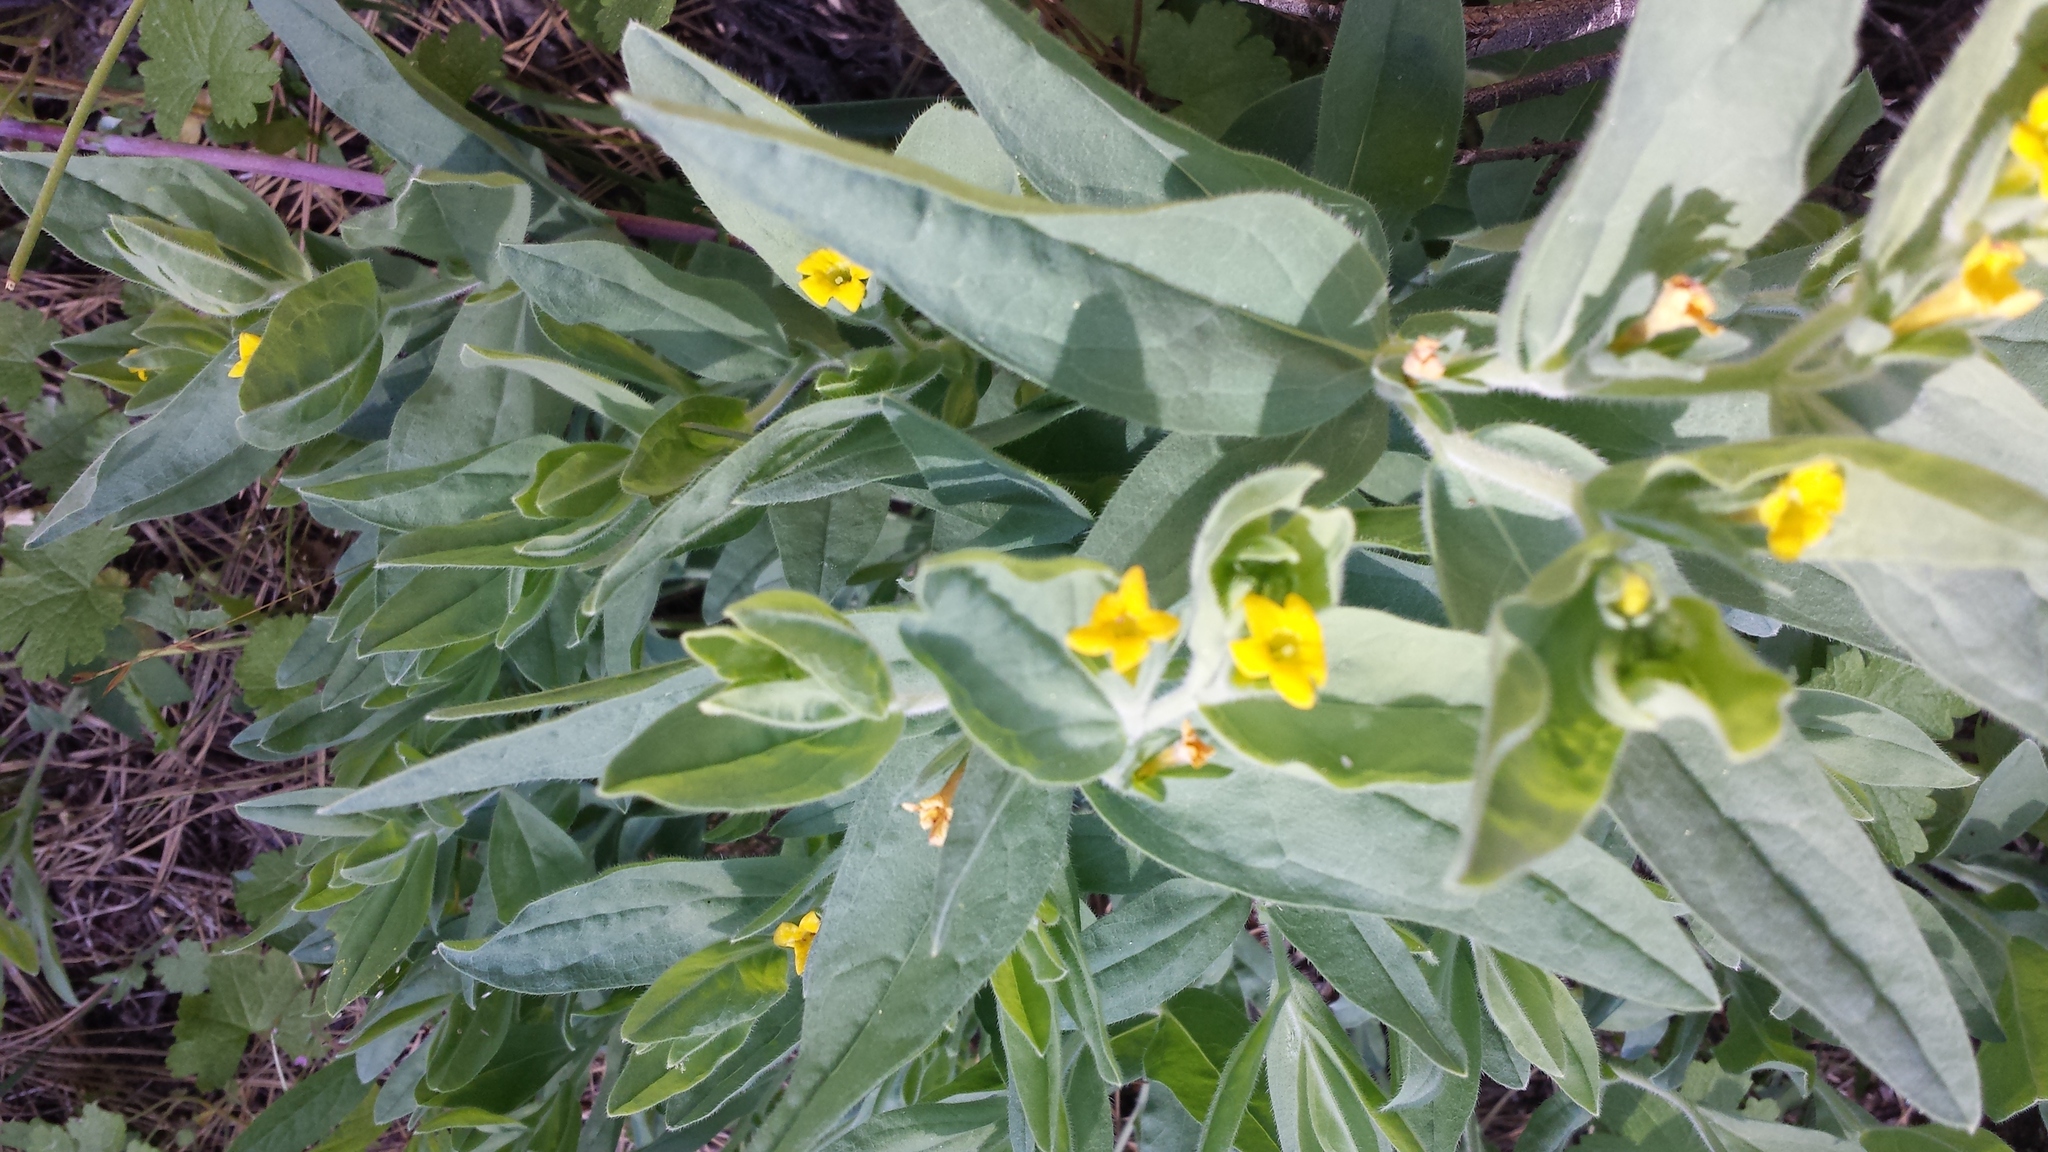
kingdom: Plantae
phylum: Tracheophyta
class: Magnoliopsida
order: Boraginales
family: Boraginaceae
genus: Lithospermum
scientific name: Lithospermum californicum
